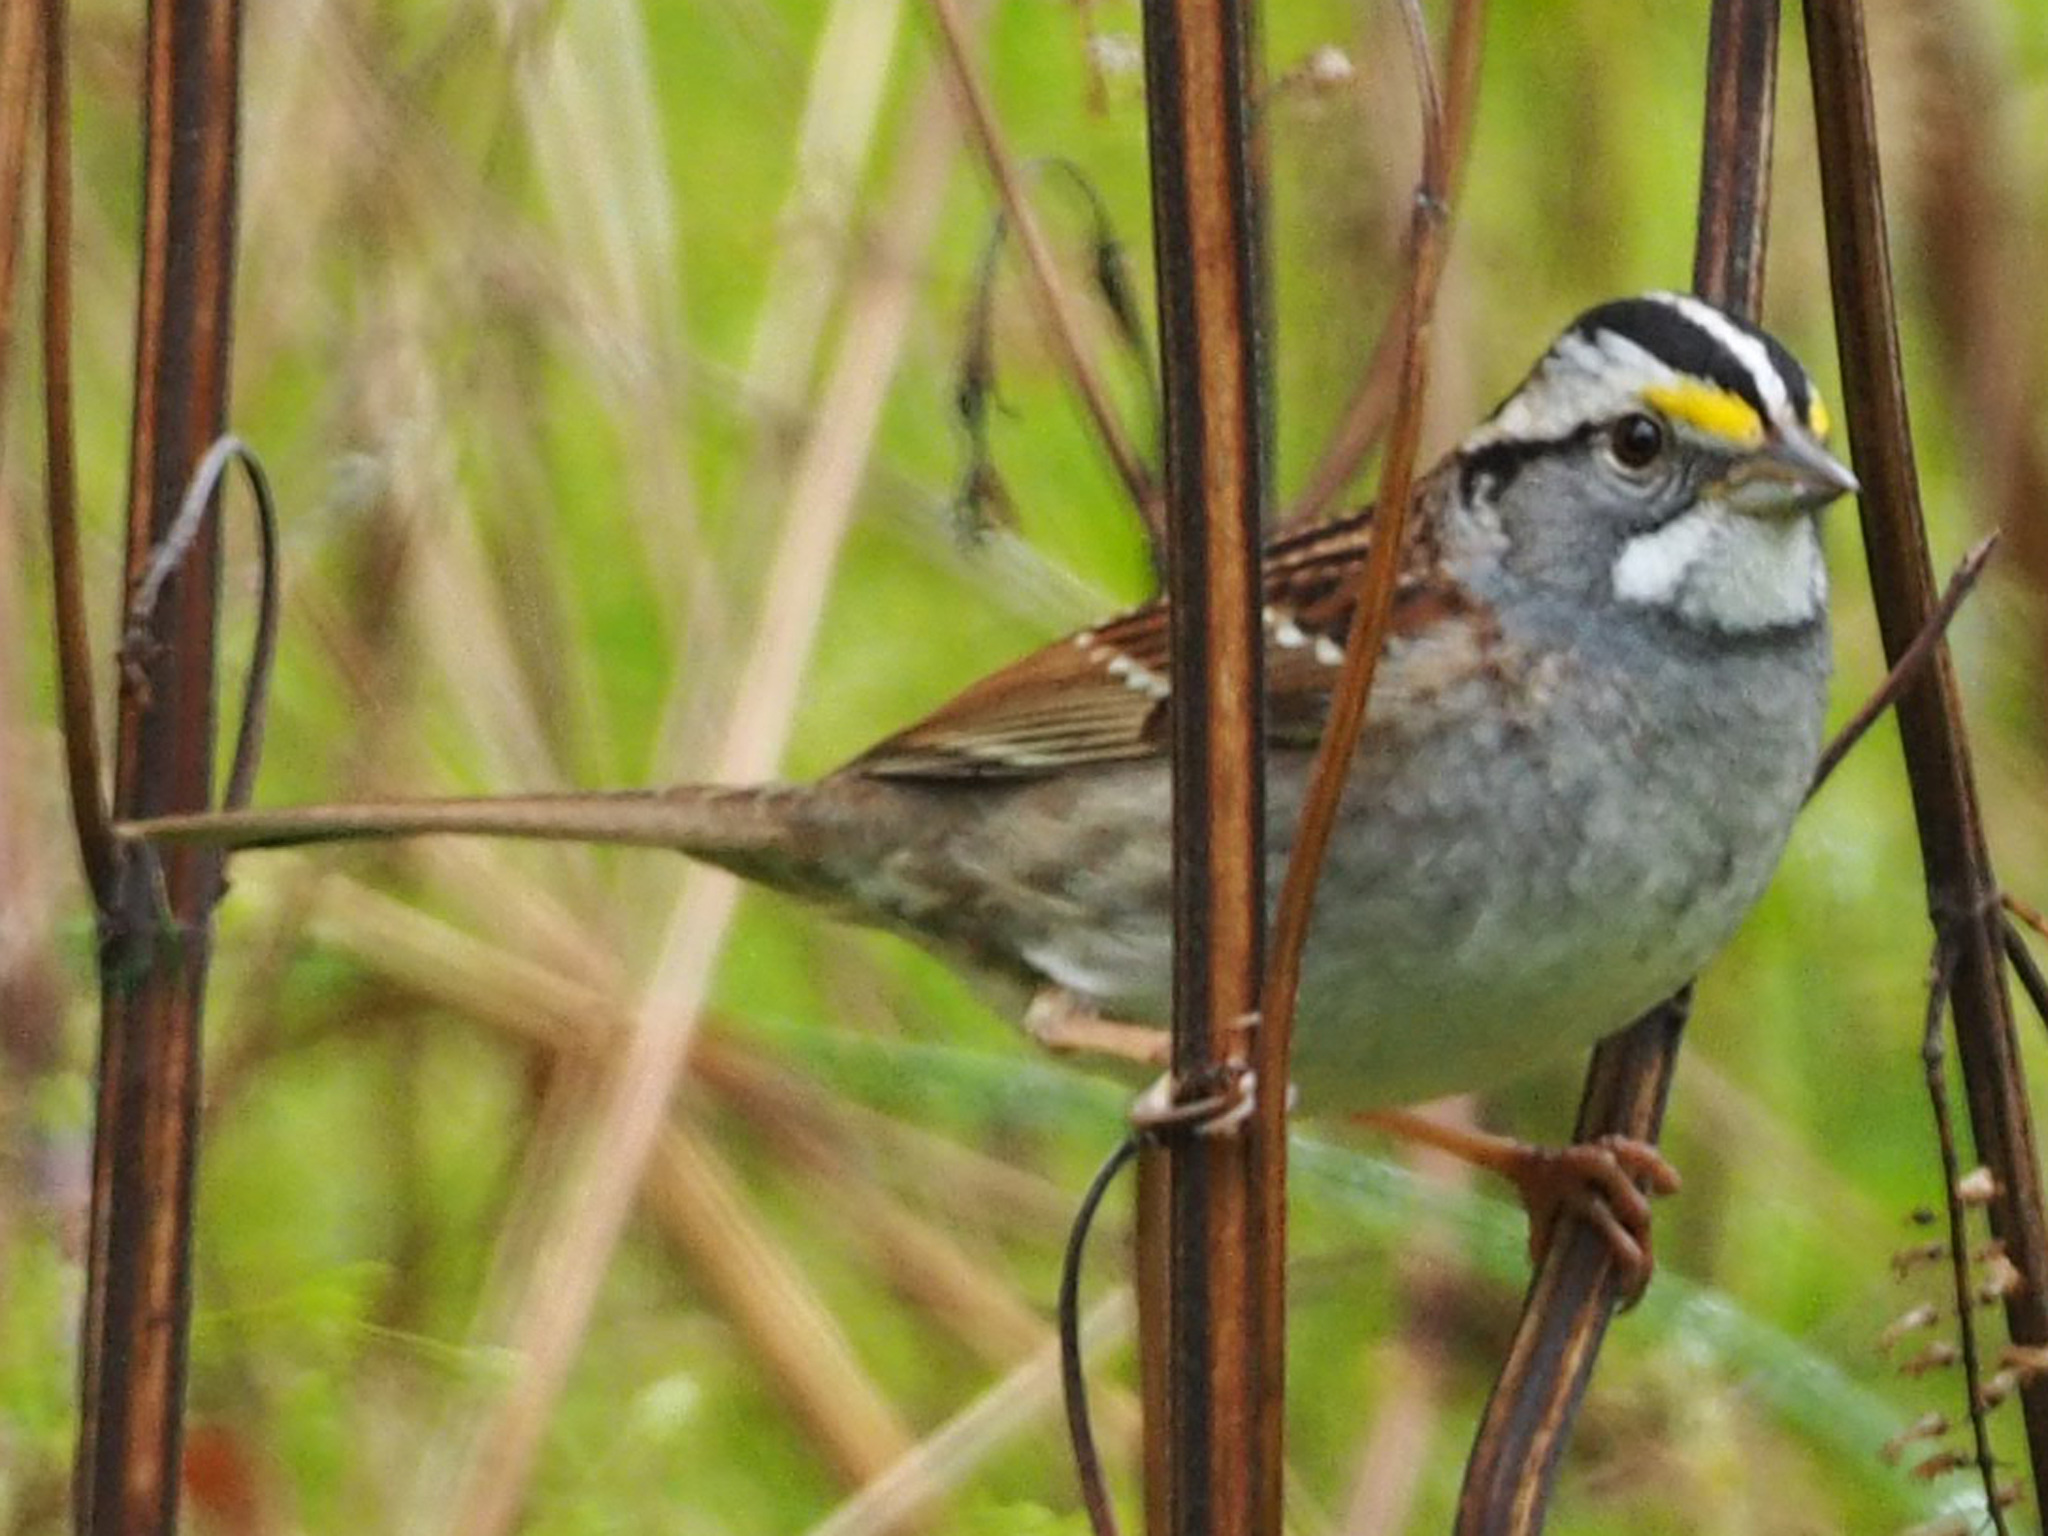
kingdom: Animalia
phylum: Chordata
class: Aves
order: Passeriformes
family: Passerellidae
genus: Zonotrichia
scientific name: Zonotrichia albicollis
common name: White-throated sparrow
